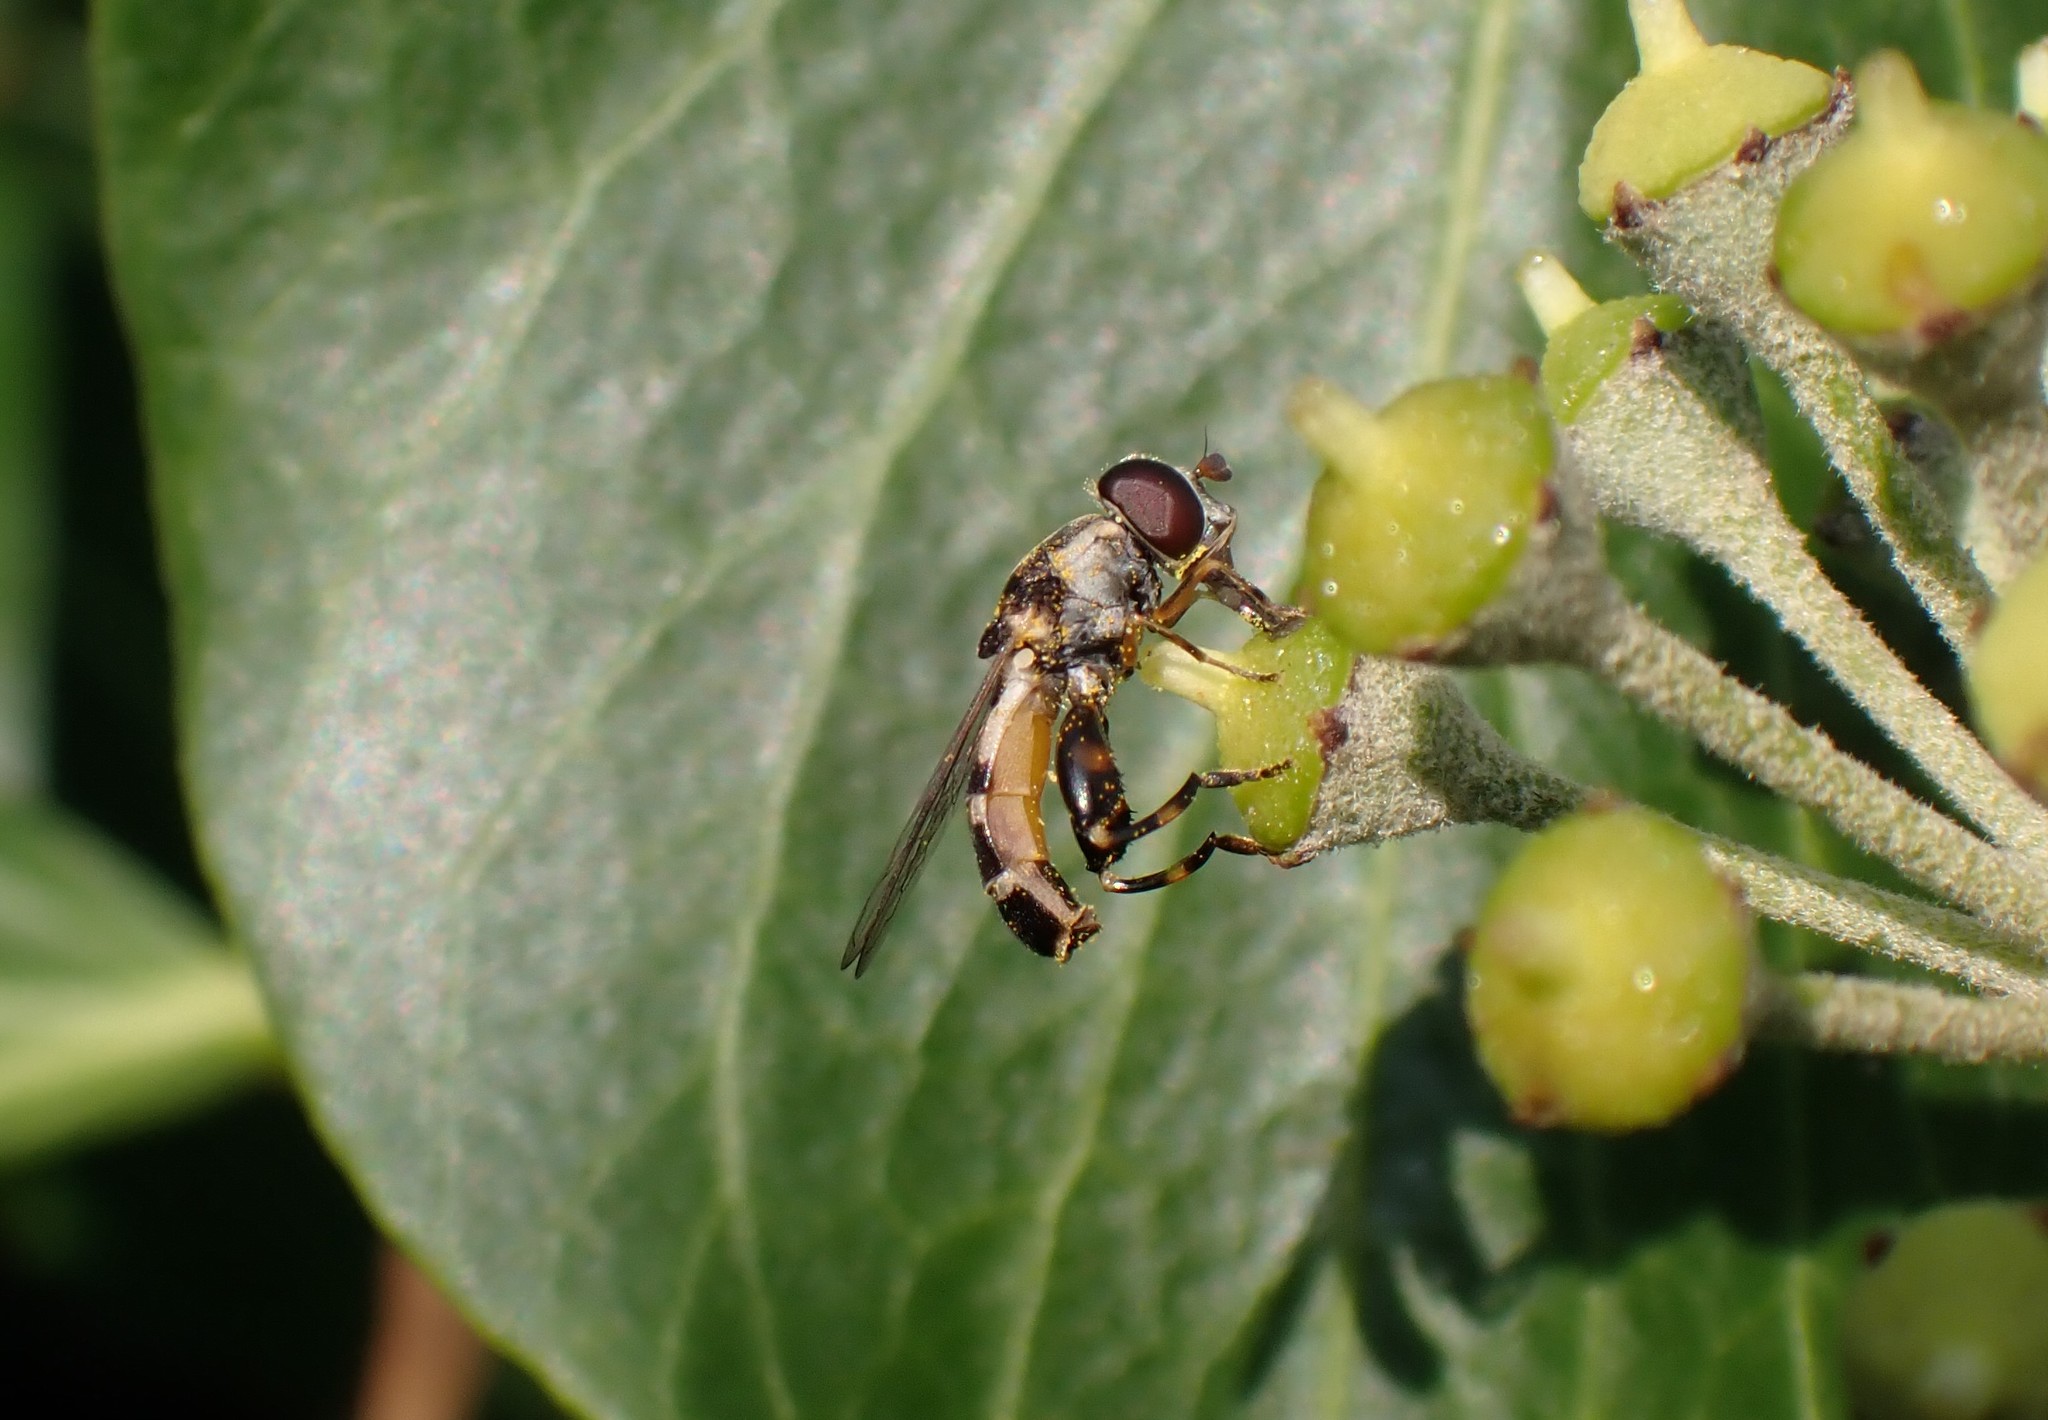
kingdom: Animalia
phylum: Arthropoda
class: Insecta
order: Diptera
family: Syrphidae
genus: Syritta
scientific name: Syritta pipiens
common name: Hover fly
